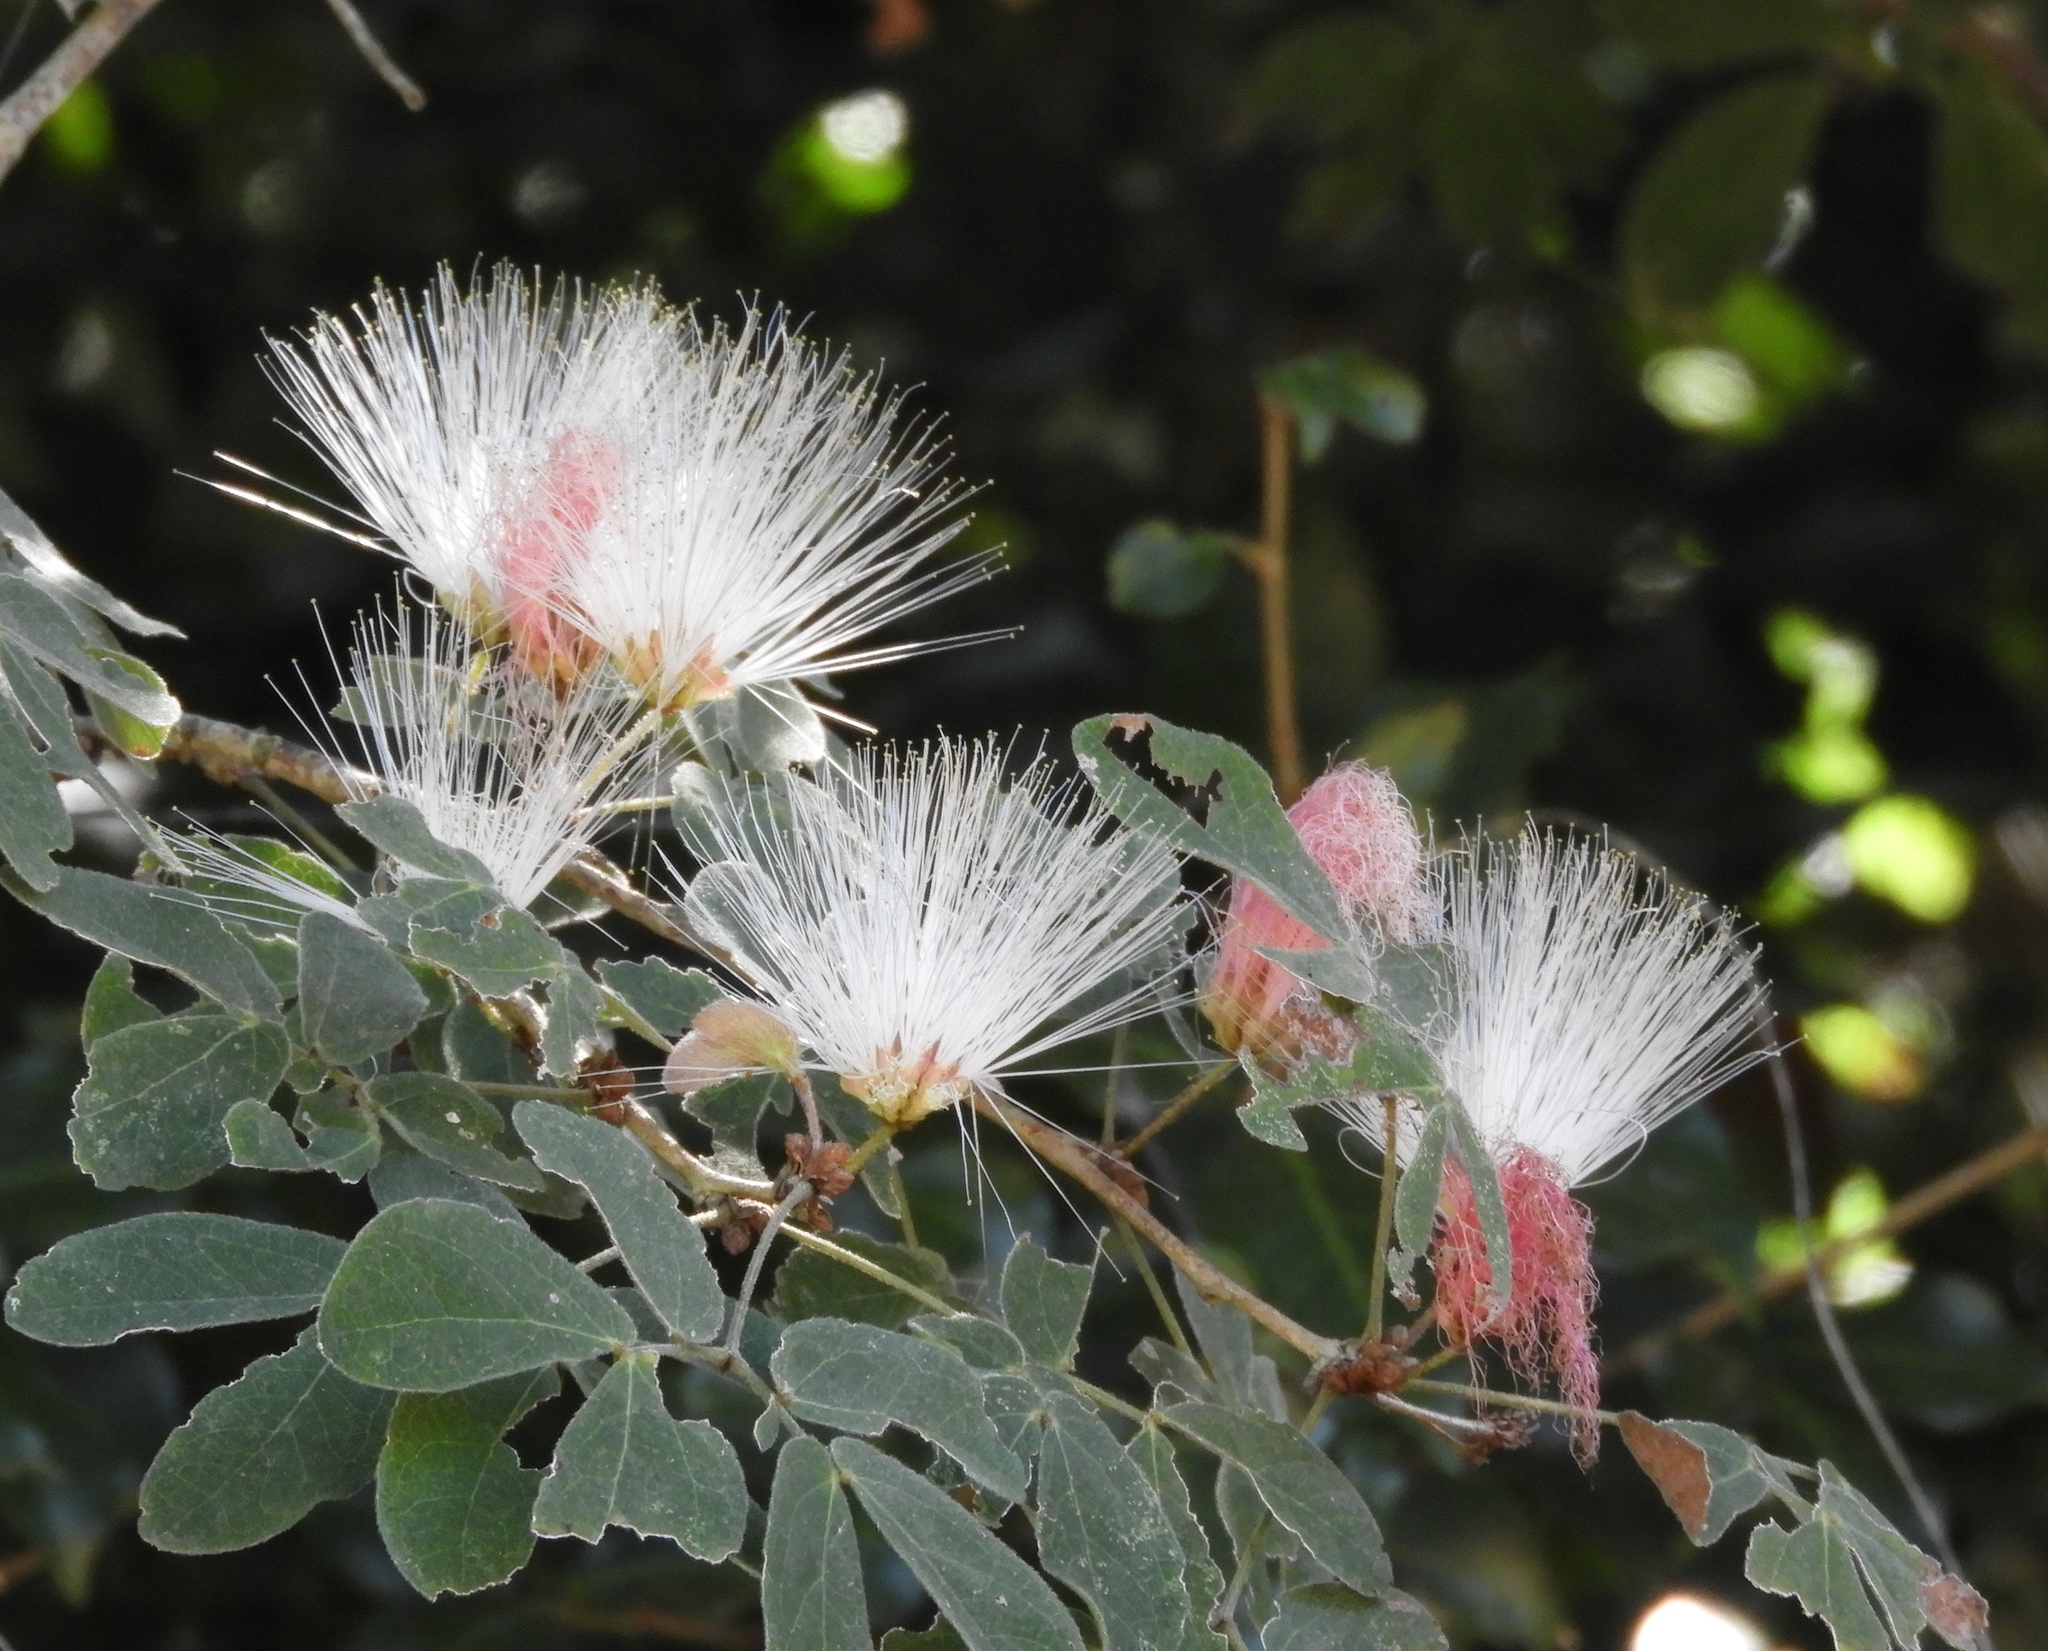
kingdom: Plantae
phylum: Tracheophyta
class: Magnoliopsida
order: Fabales
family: Fabaceae
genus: Calliandra
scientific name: Calliandra
